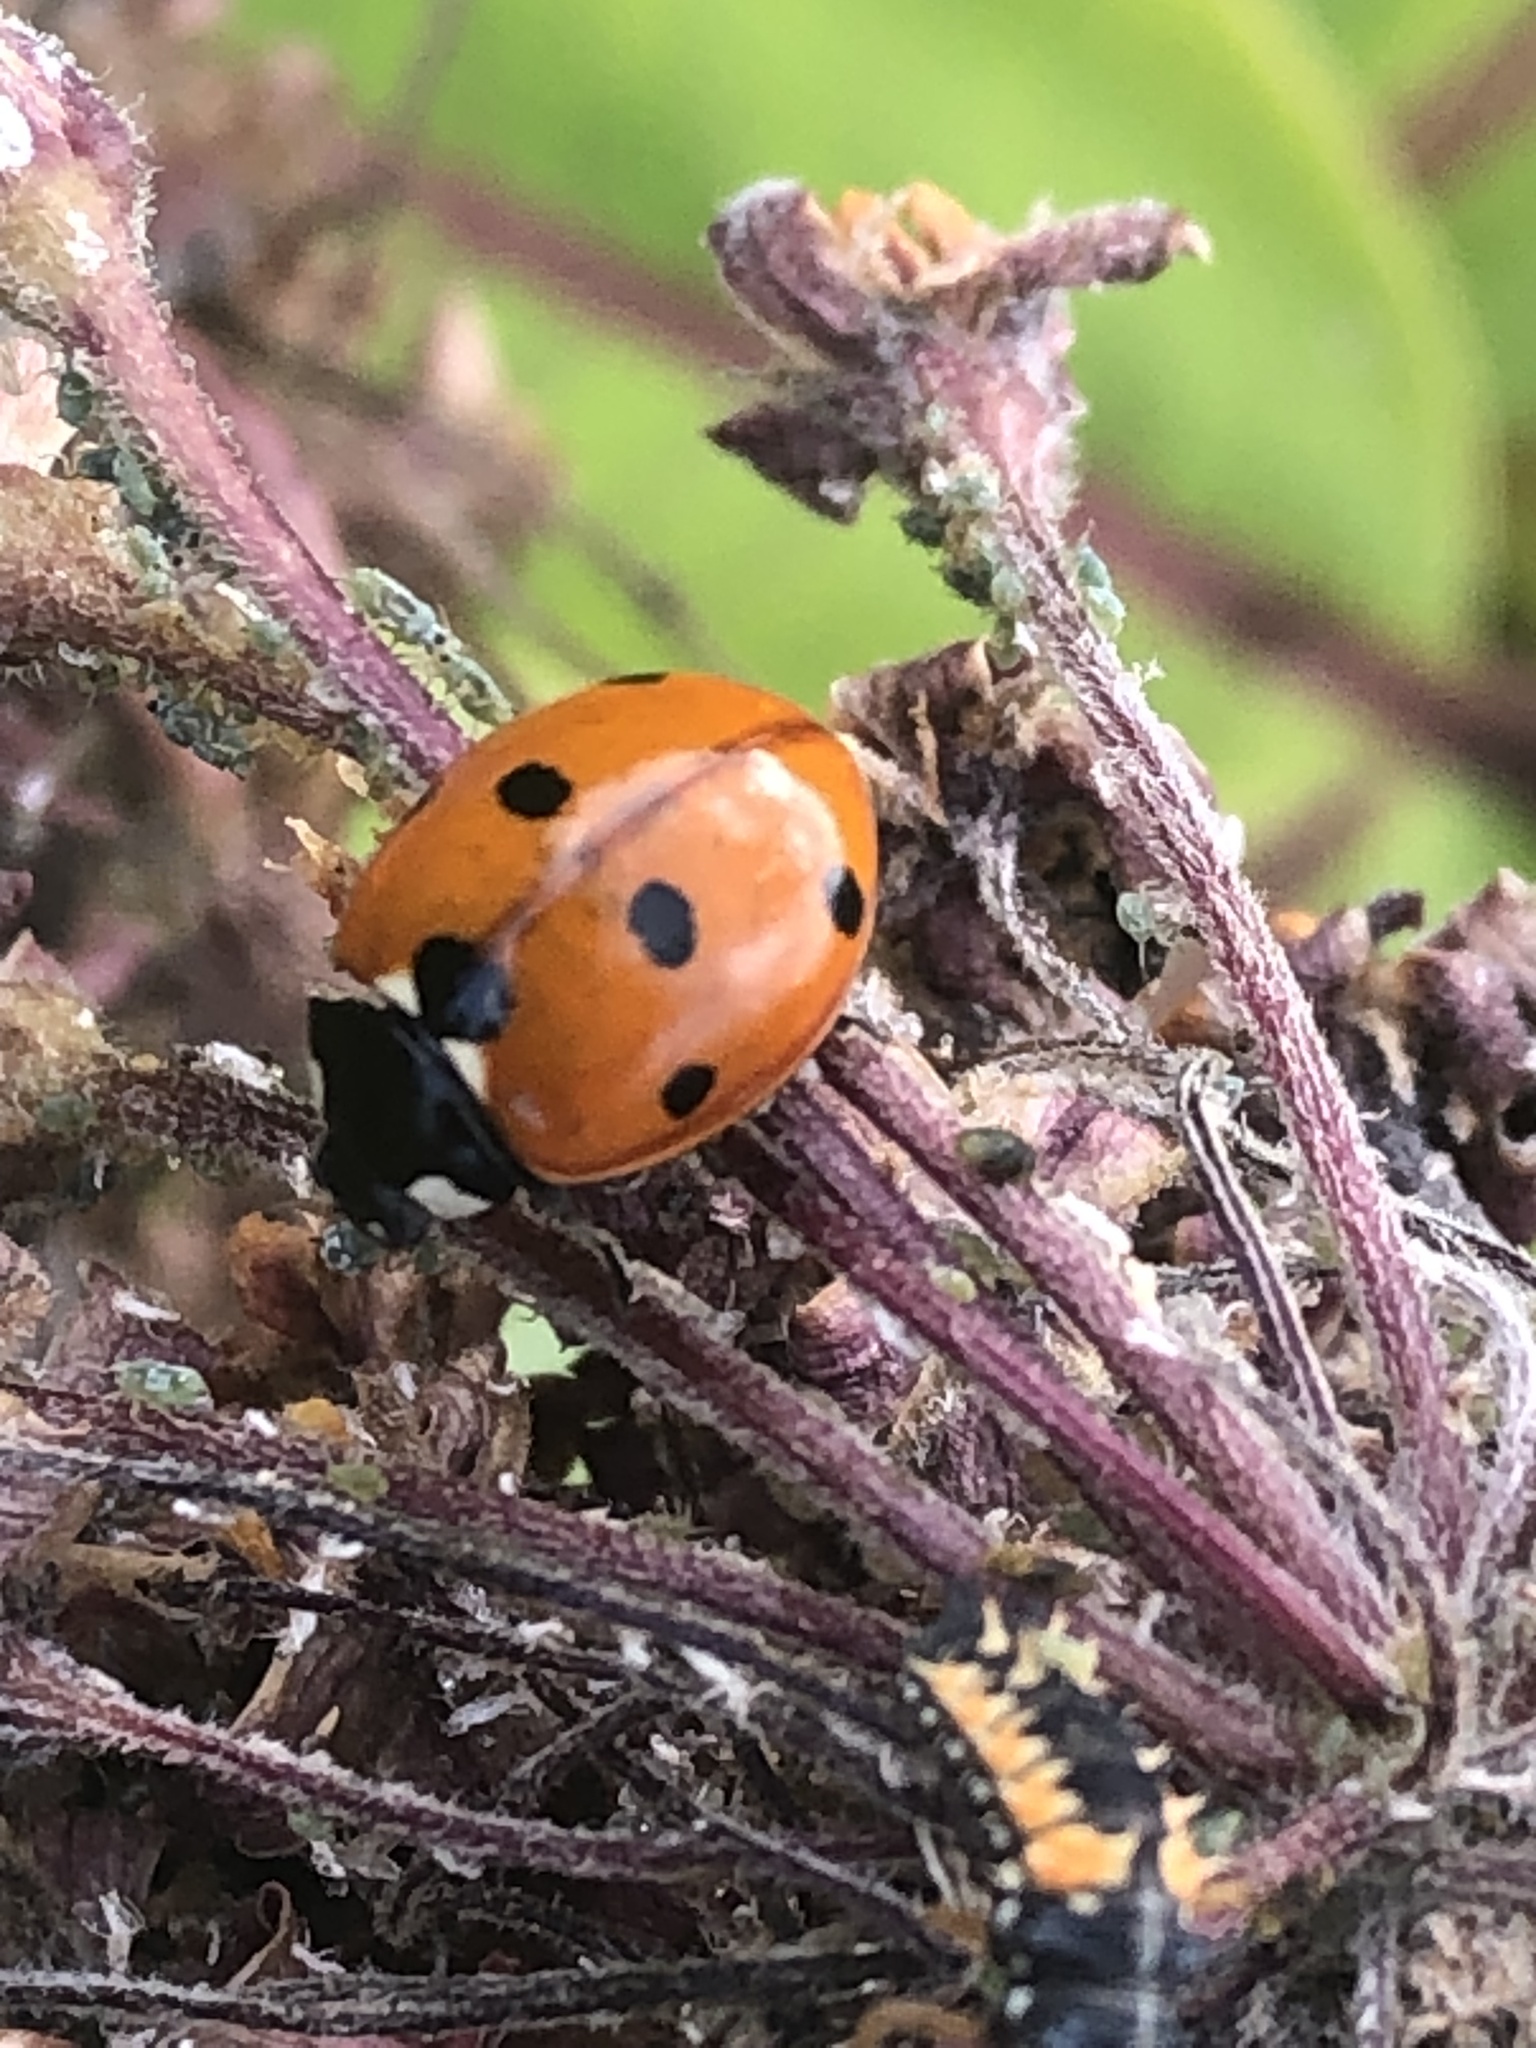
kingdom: Animalia
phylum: Arthropoda
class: Insecta
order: Coleoptera
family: Coccinellidae
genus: Coccinella
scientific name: Coccinella septempunctata
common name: Sevenspotted lady beetle
